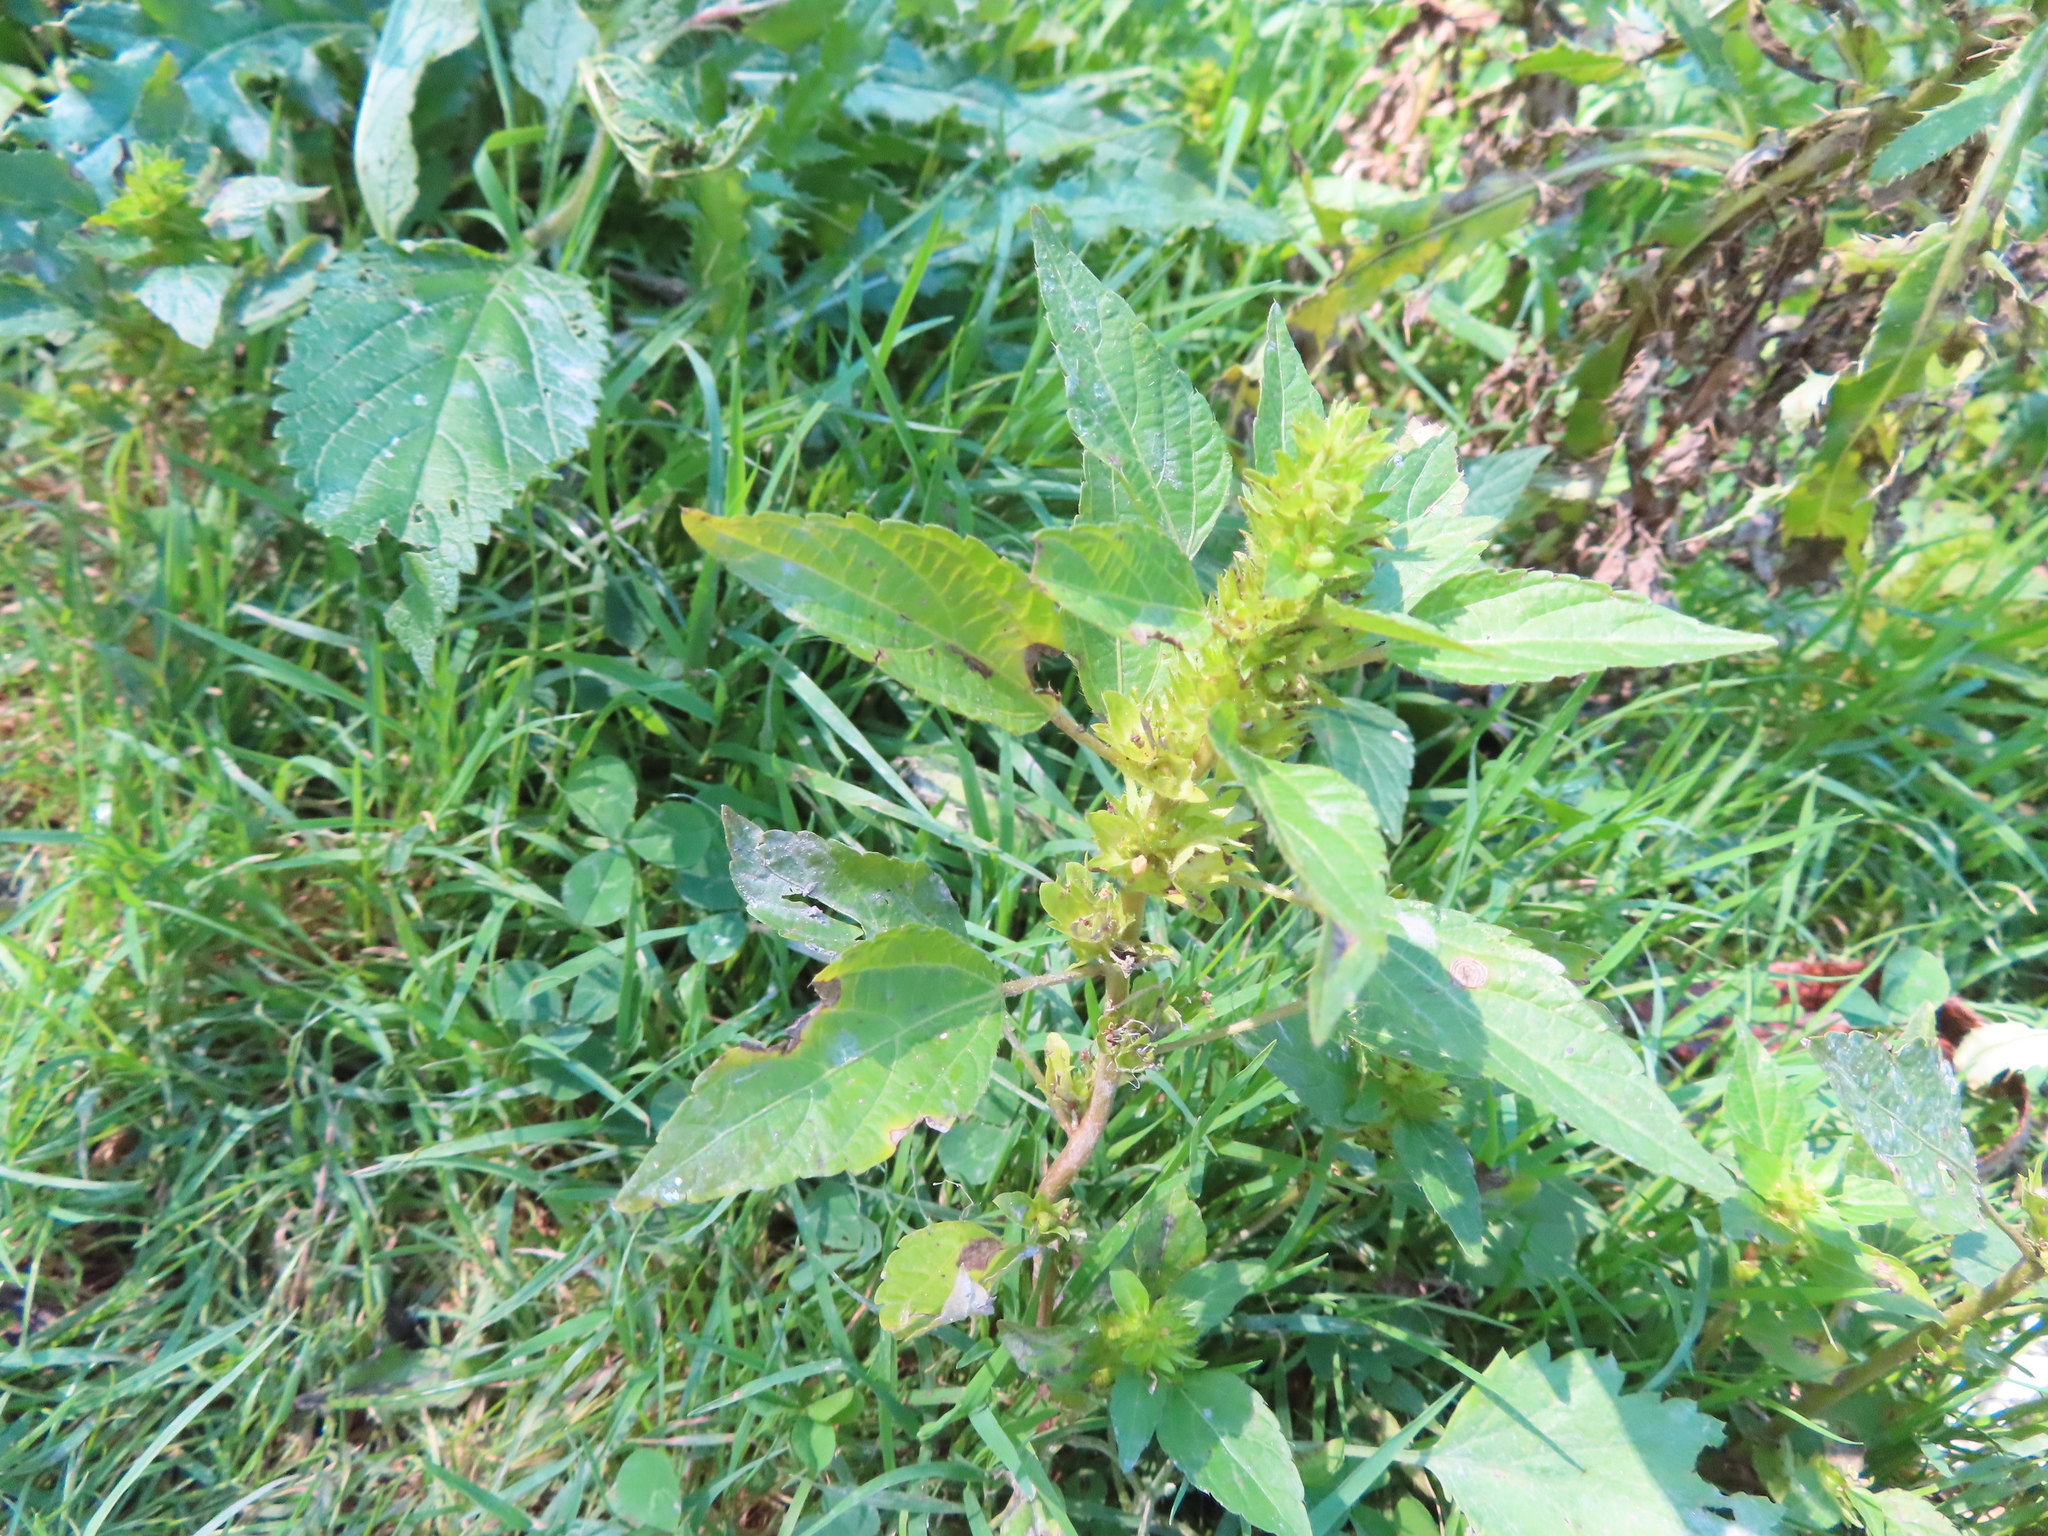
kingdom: Plantae
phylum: Tracheophyta
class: Magnoliopsida
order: Malpighiales
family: Euphorbiaceae
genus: Acalypha
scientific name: Acalypha rhomboidea
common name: Rhombic copperleaf
